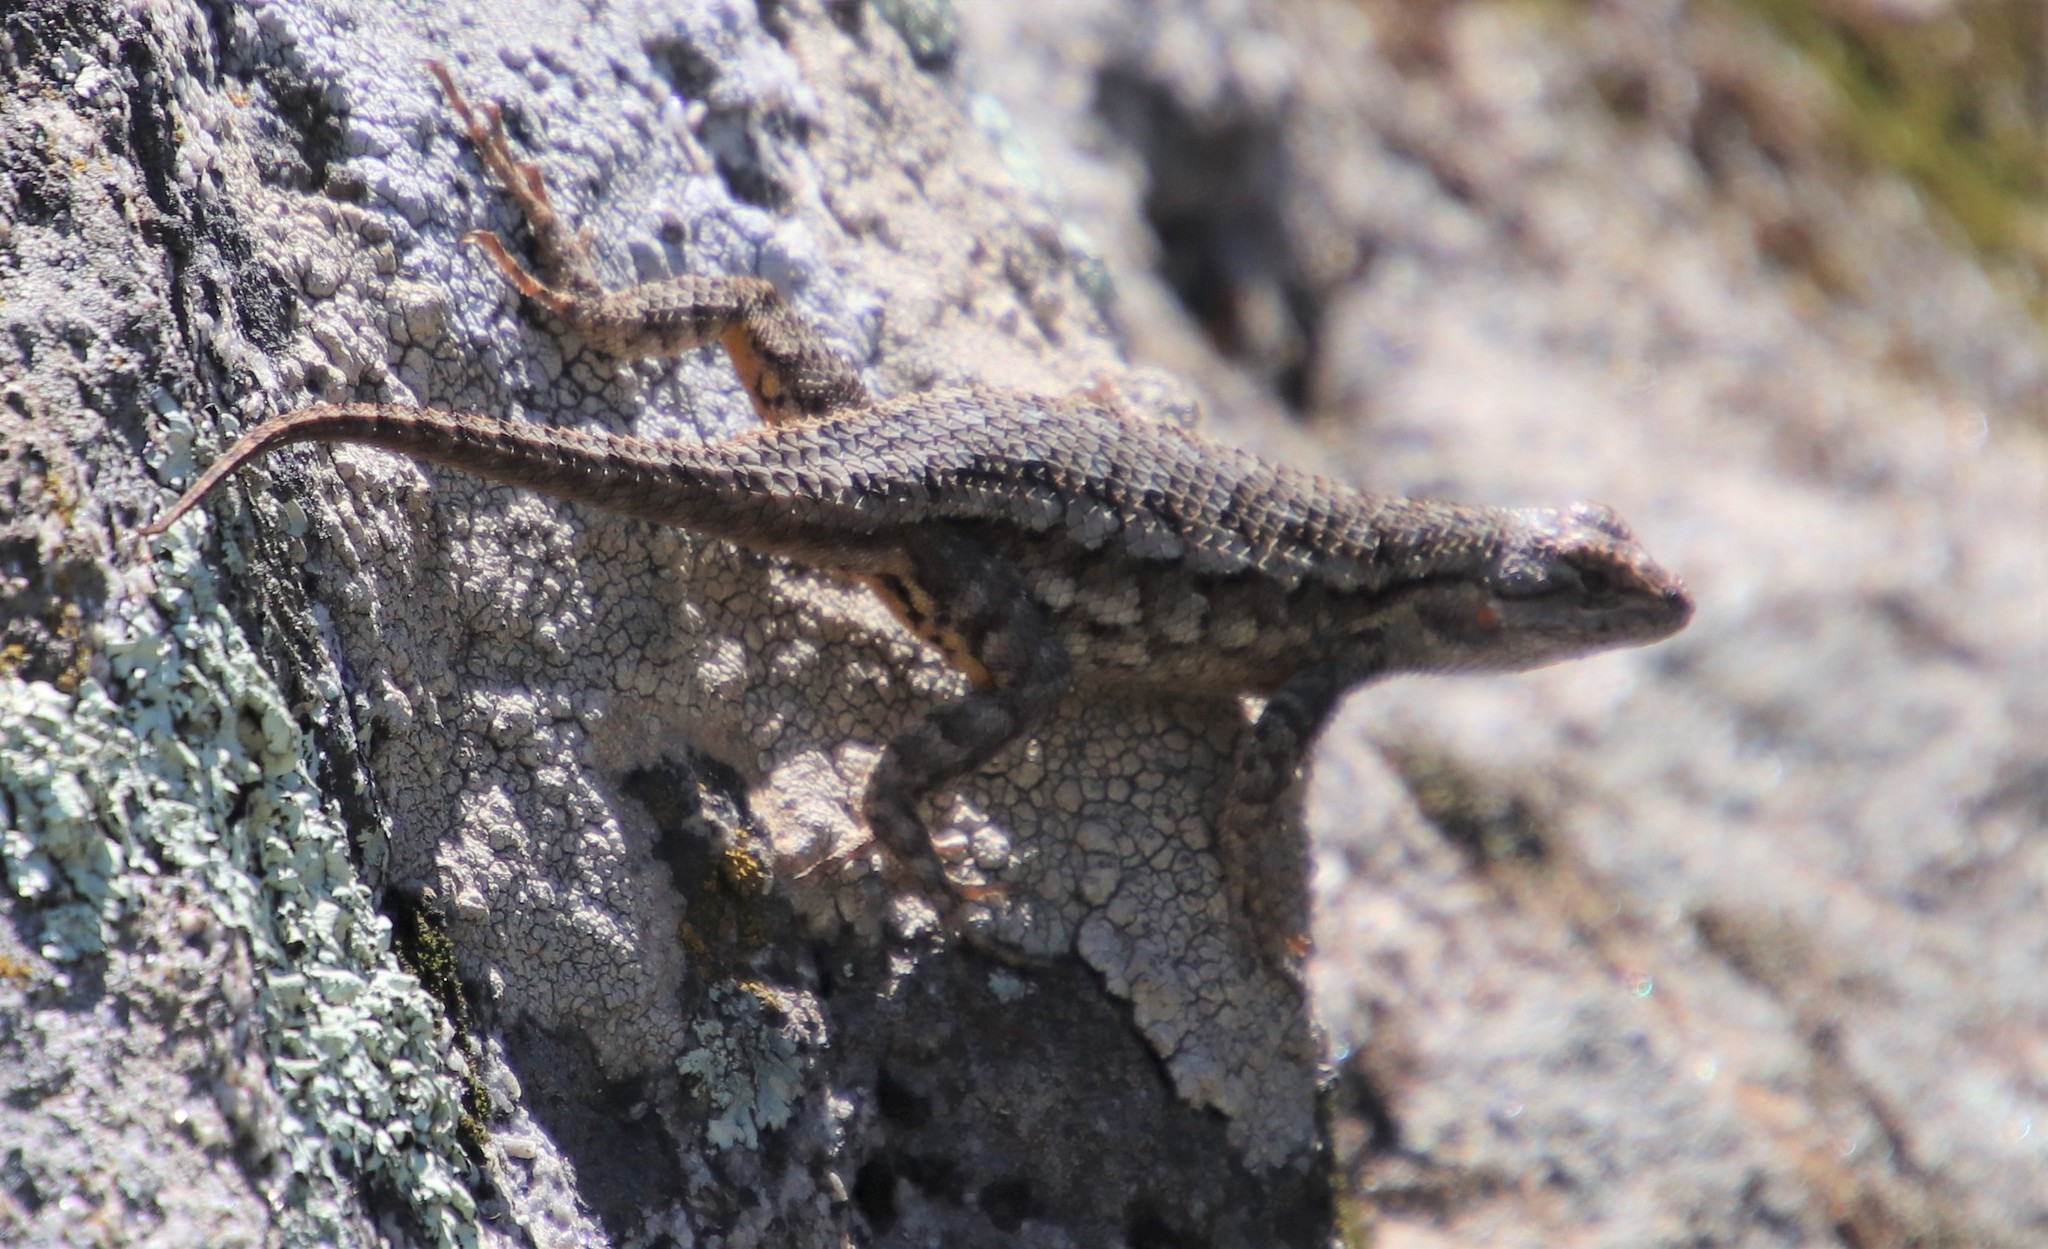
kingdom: Animalia
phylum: Chordata
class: Squamata
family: Phrynosomatidae
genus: Sceloporus
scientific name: Sceloporus occidentalis
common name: Western fence lizard
